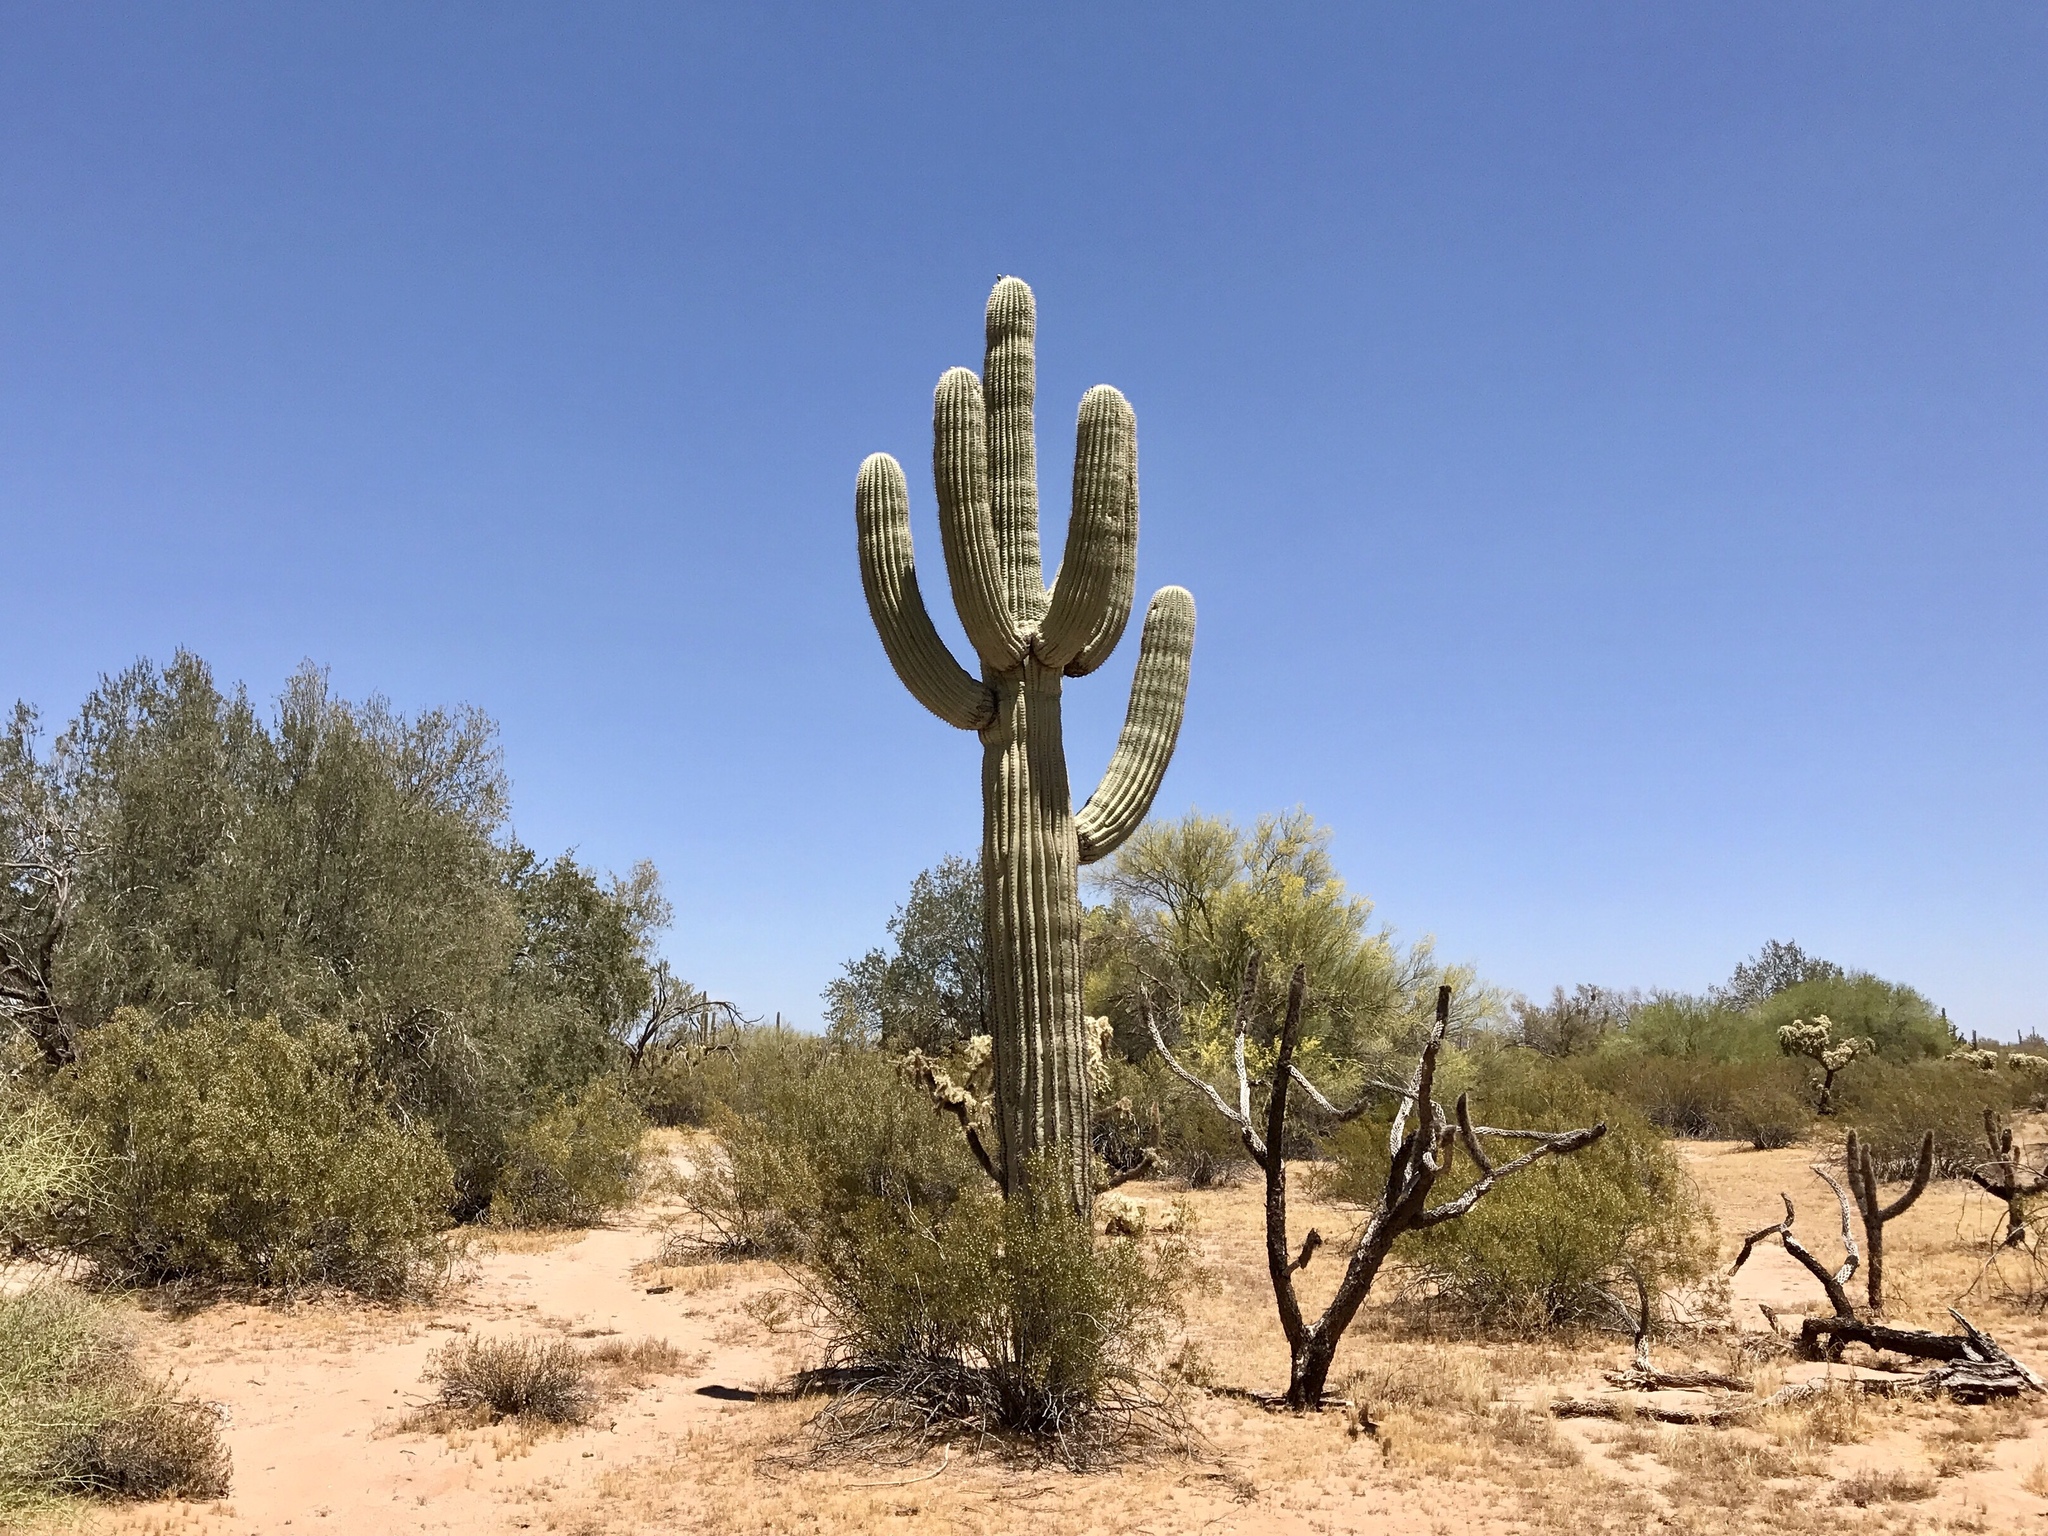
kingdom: Plantae
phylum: Tracheophyta
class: Magnoliopsida
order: Caryophyllales
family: Cactaceae
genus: Carnegiea
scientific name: Carnegiea gigantea
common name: Saguaro
